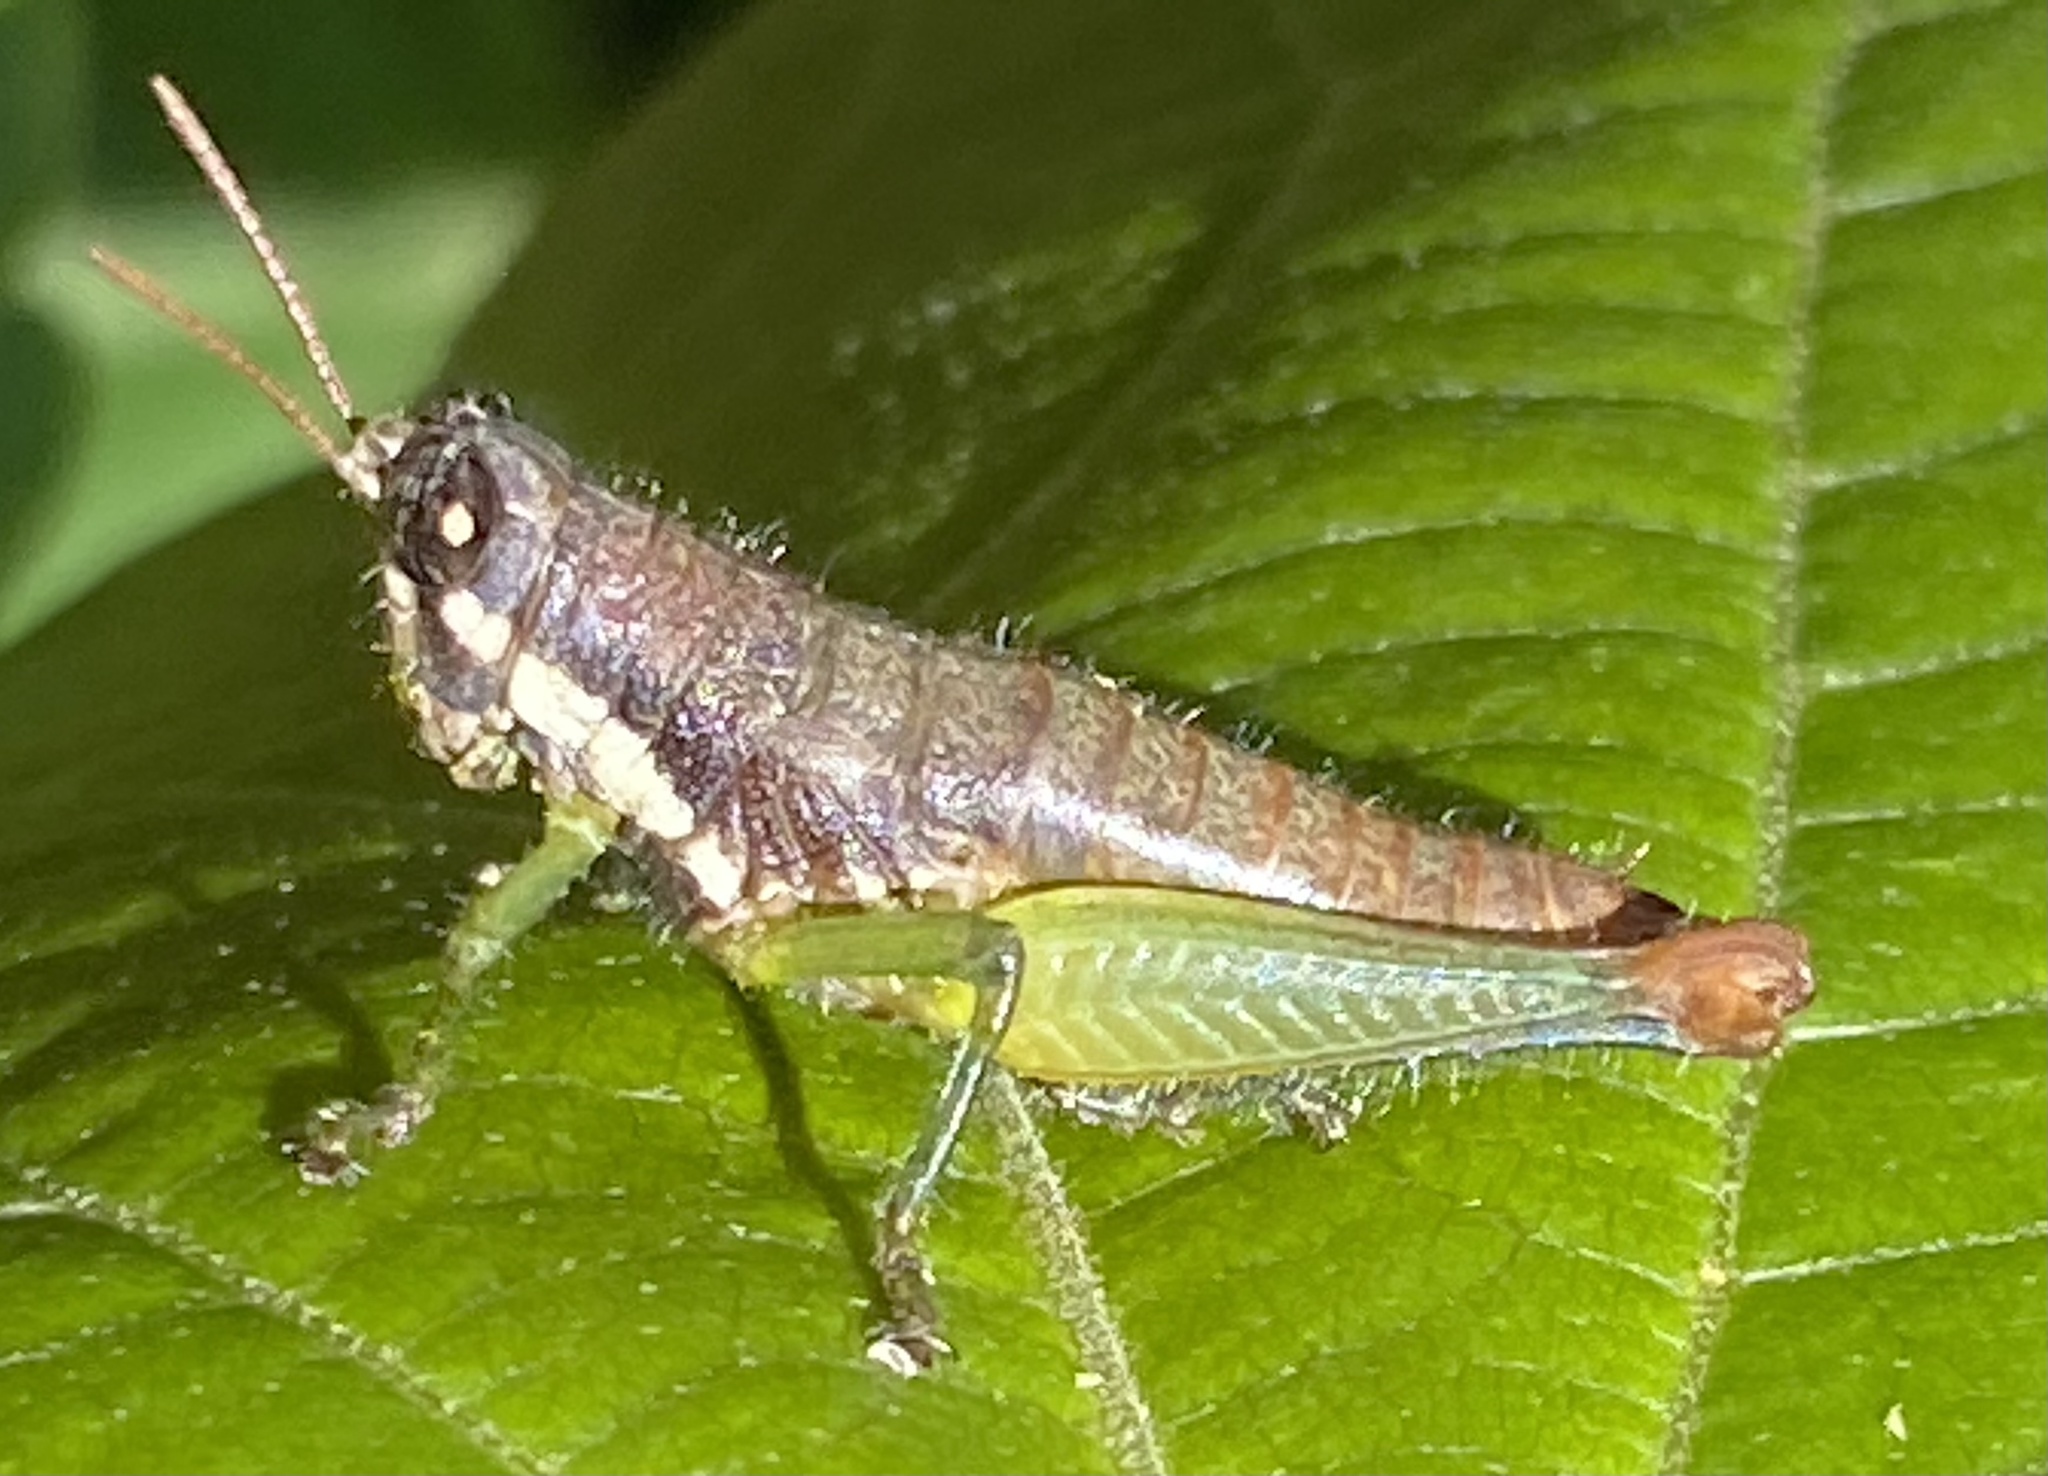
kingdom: Animalia
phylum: Arthropoda
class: Insecta
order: Orthoptera
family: Acrididae
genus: Sitalces
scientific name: Sitalces volxemi
